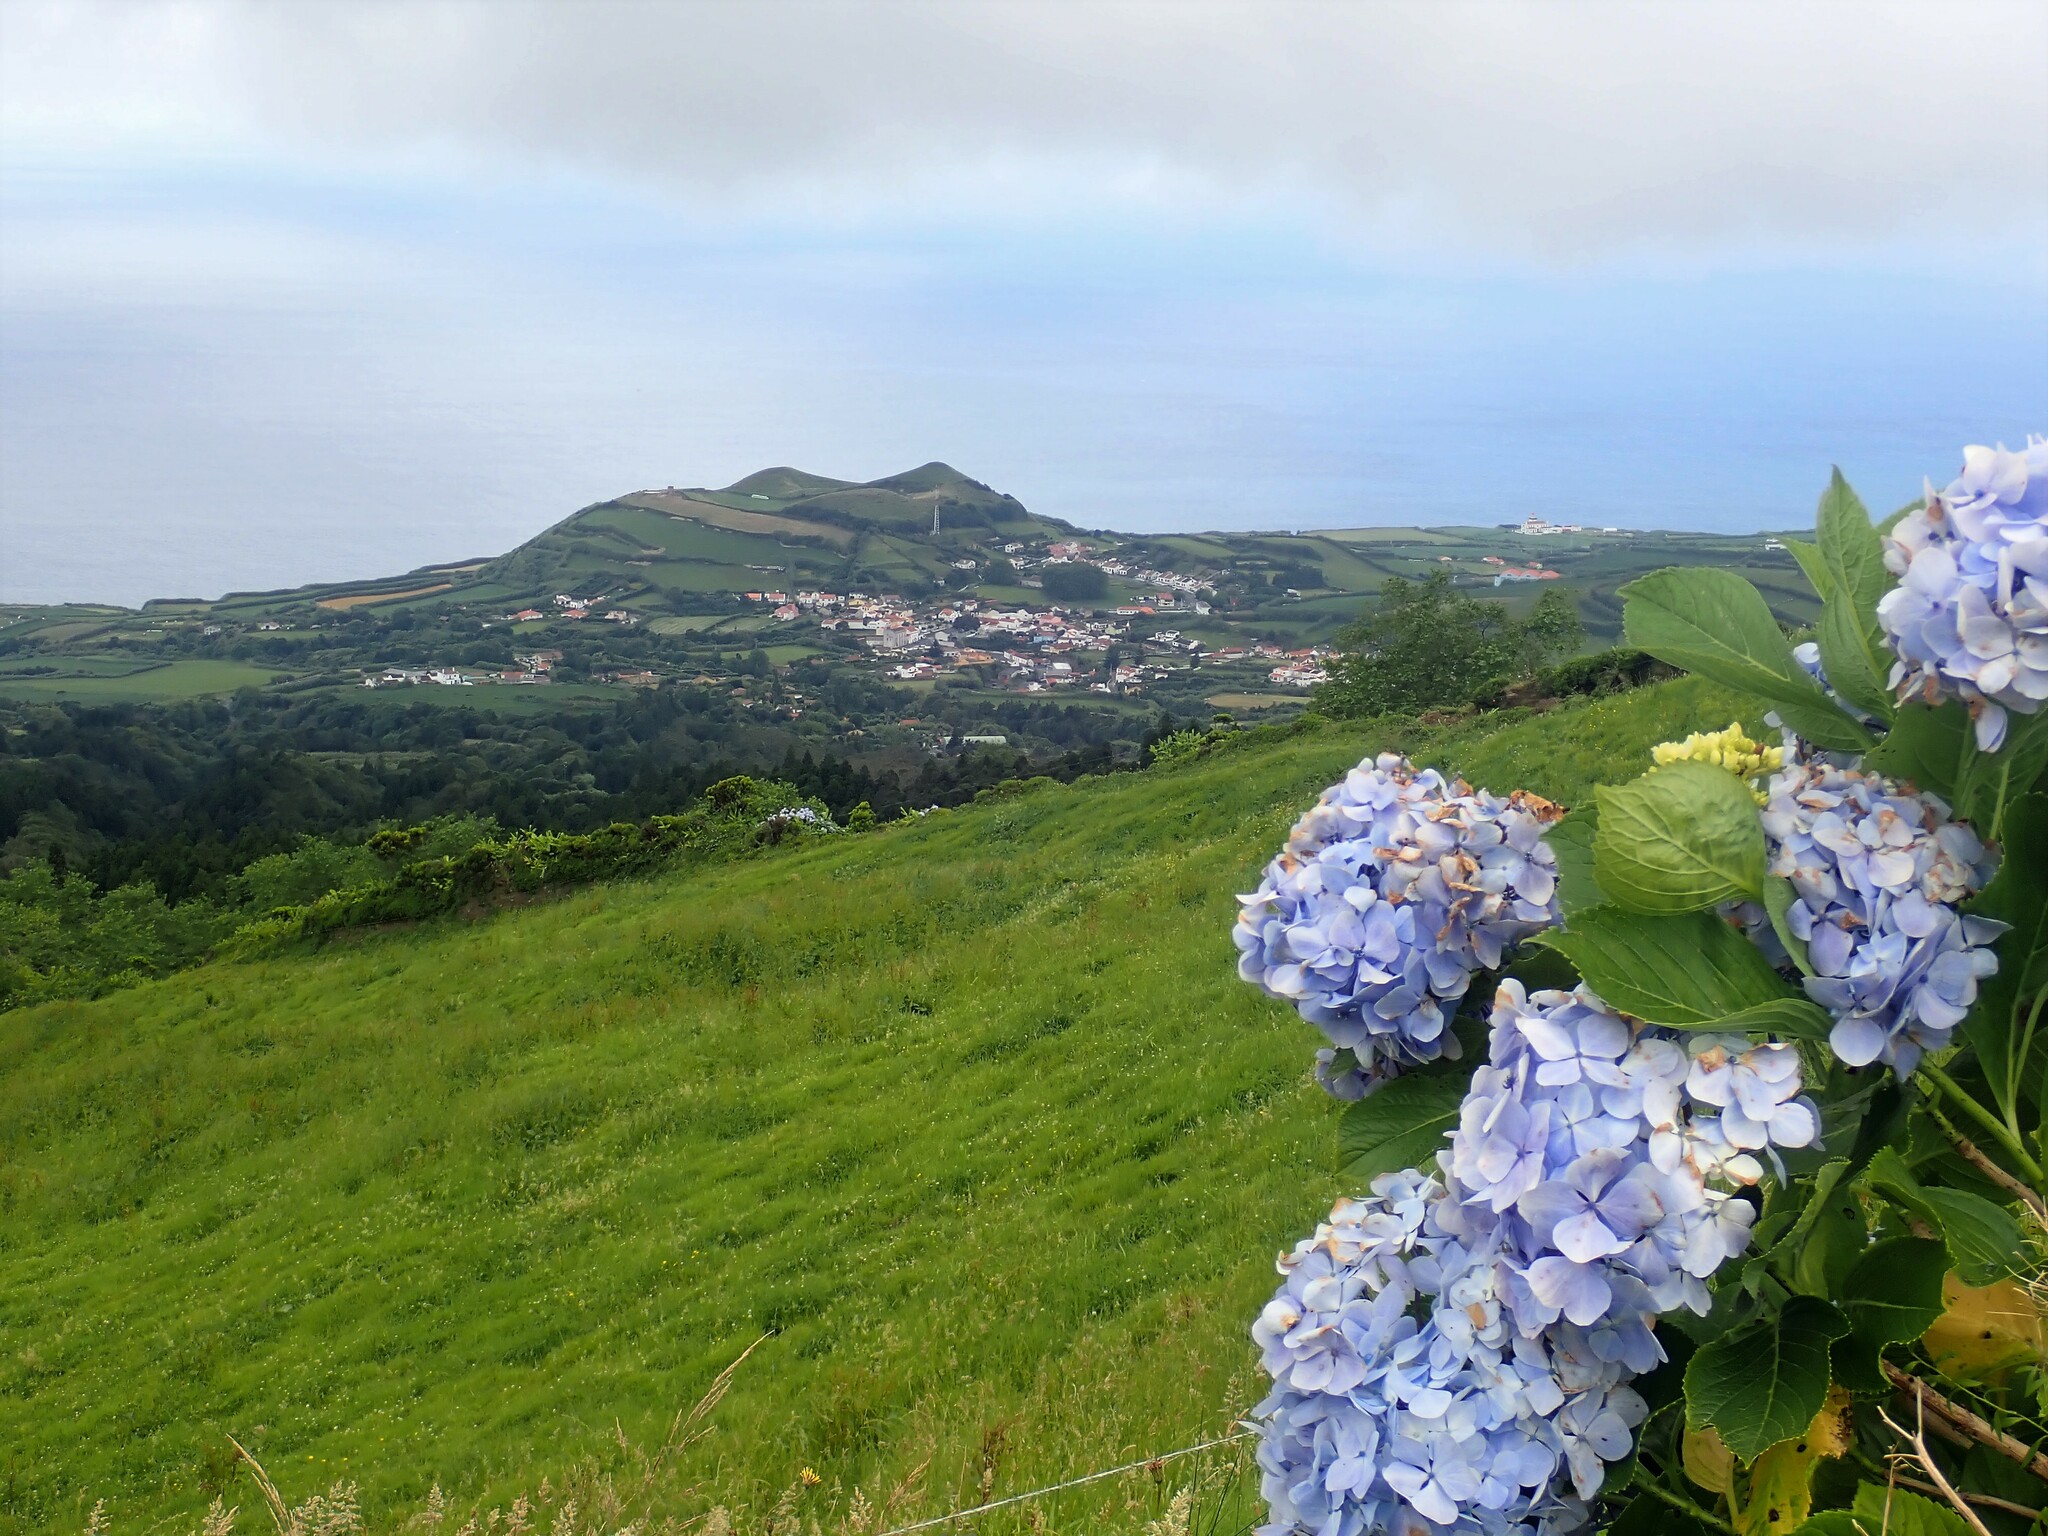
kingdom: Plantae
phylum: Tracheophyta
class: Magnoliopsida
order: Cornales
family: Hydrangeaceae
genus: Hydrangea
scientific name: Hydrangea macrophylla
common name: Hydrangea
